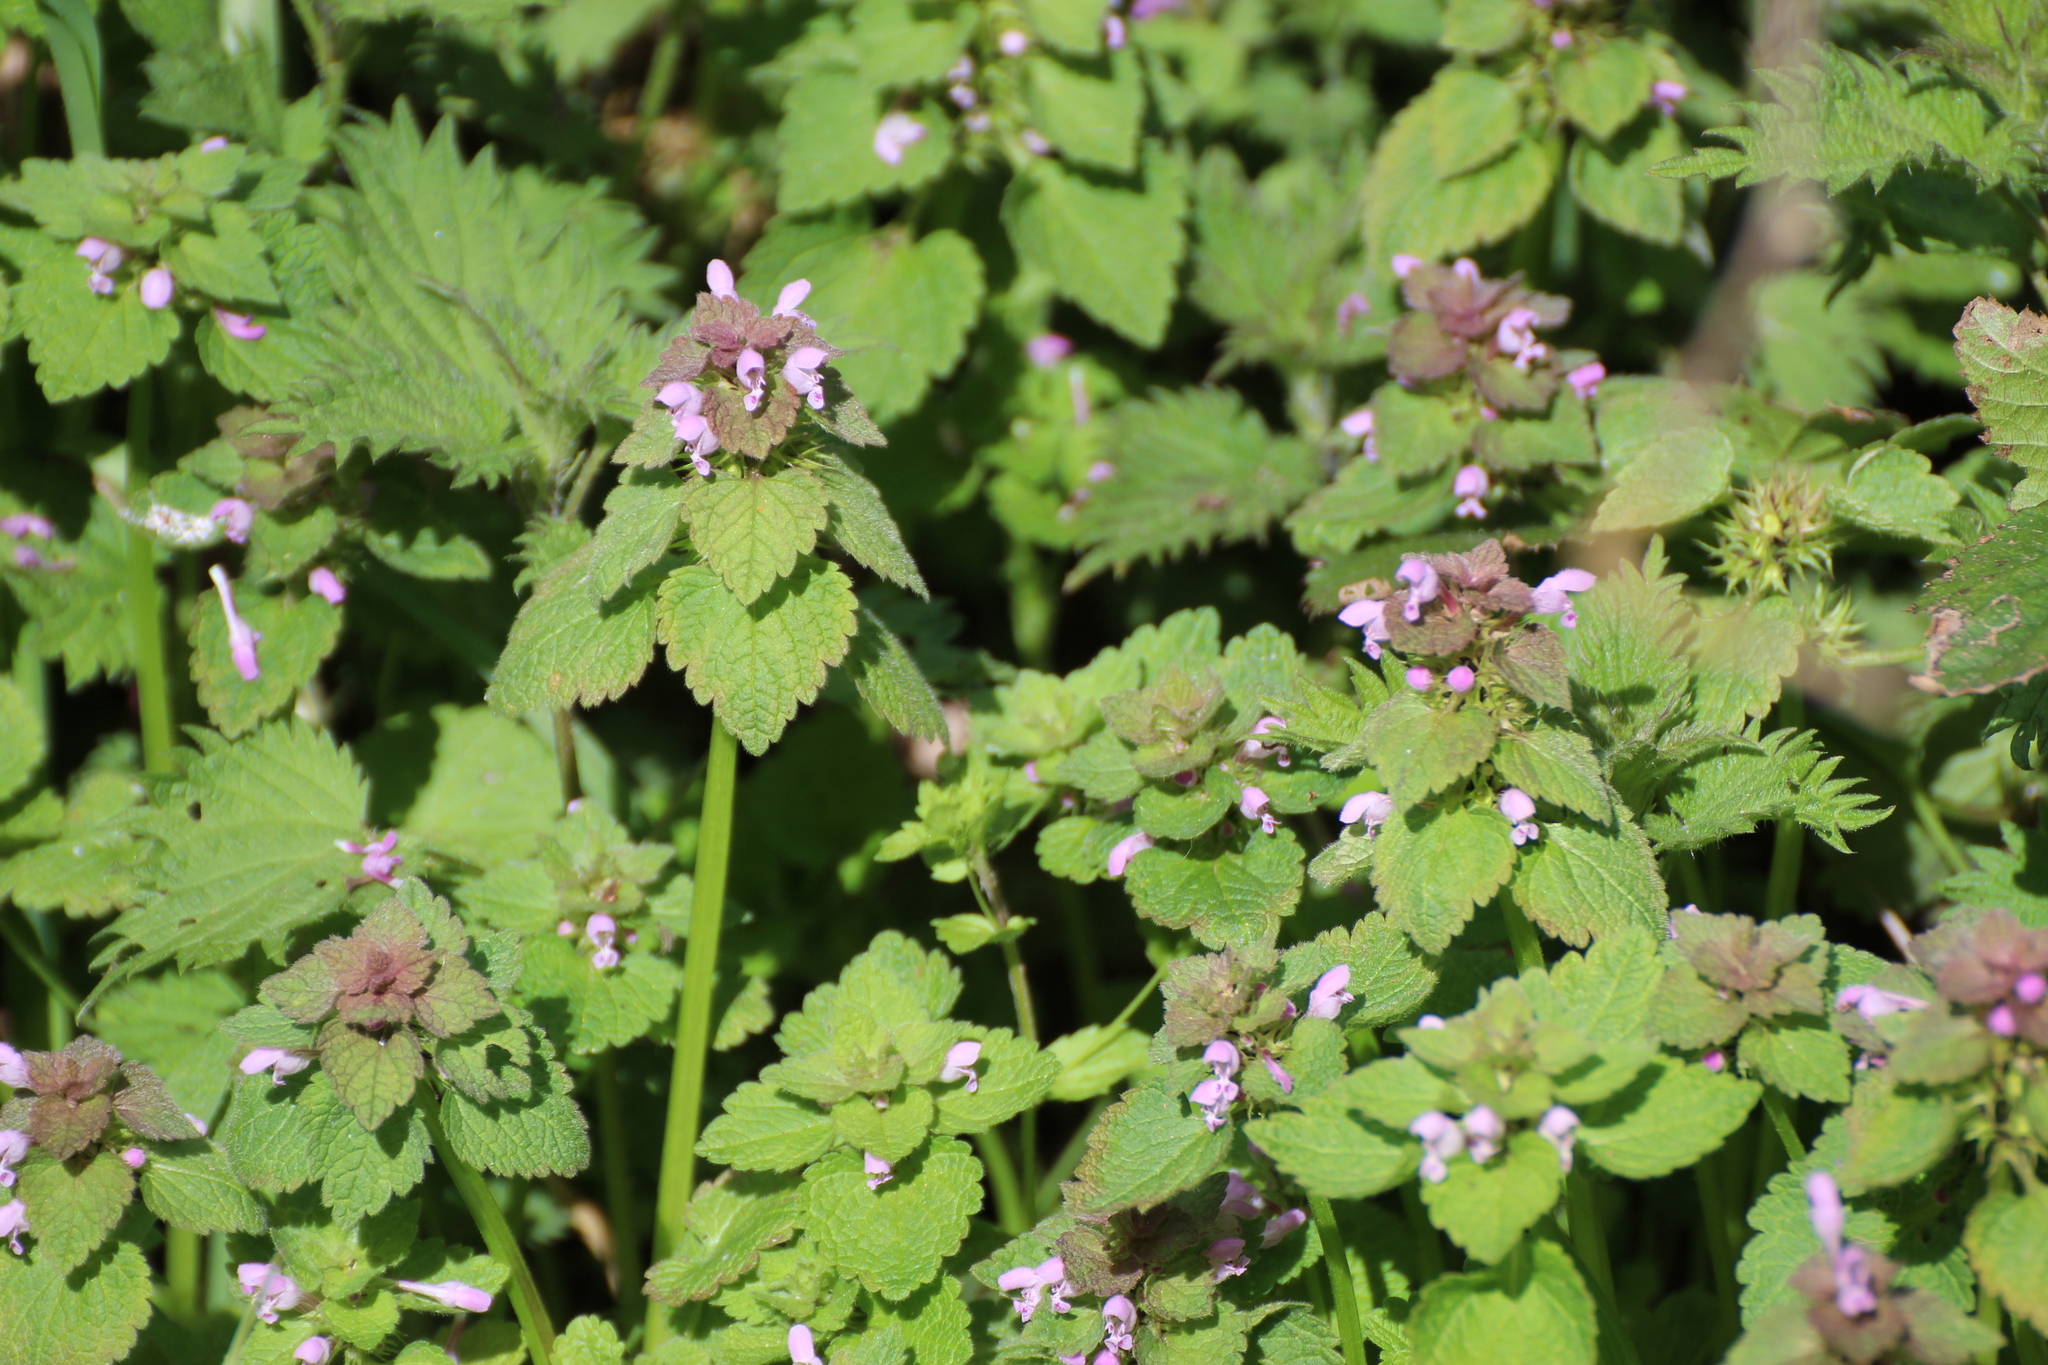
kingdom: Plantae
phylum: Tracheophyta
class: Magnoliopsida
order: Lamiales
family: Lamiaceae
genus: Lamium
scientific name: Lamium purpureum
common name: Red dead-nettle
